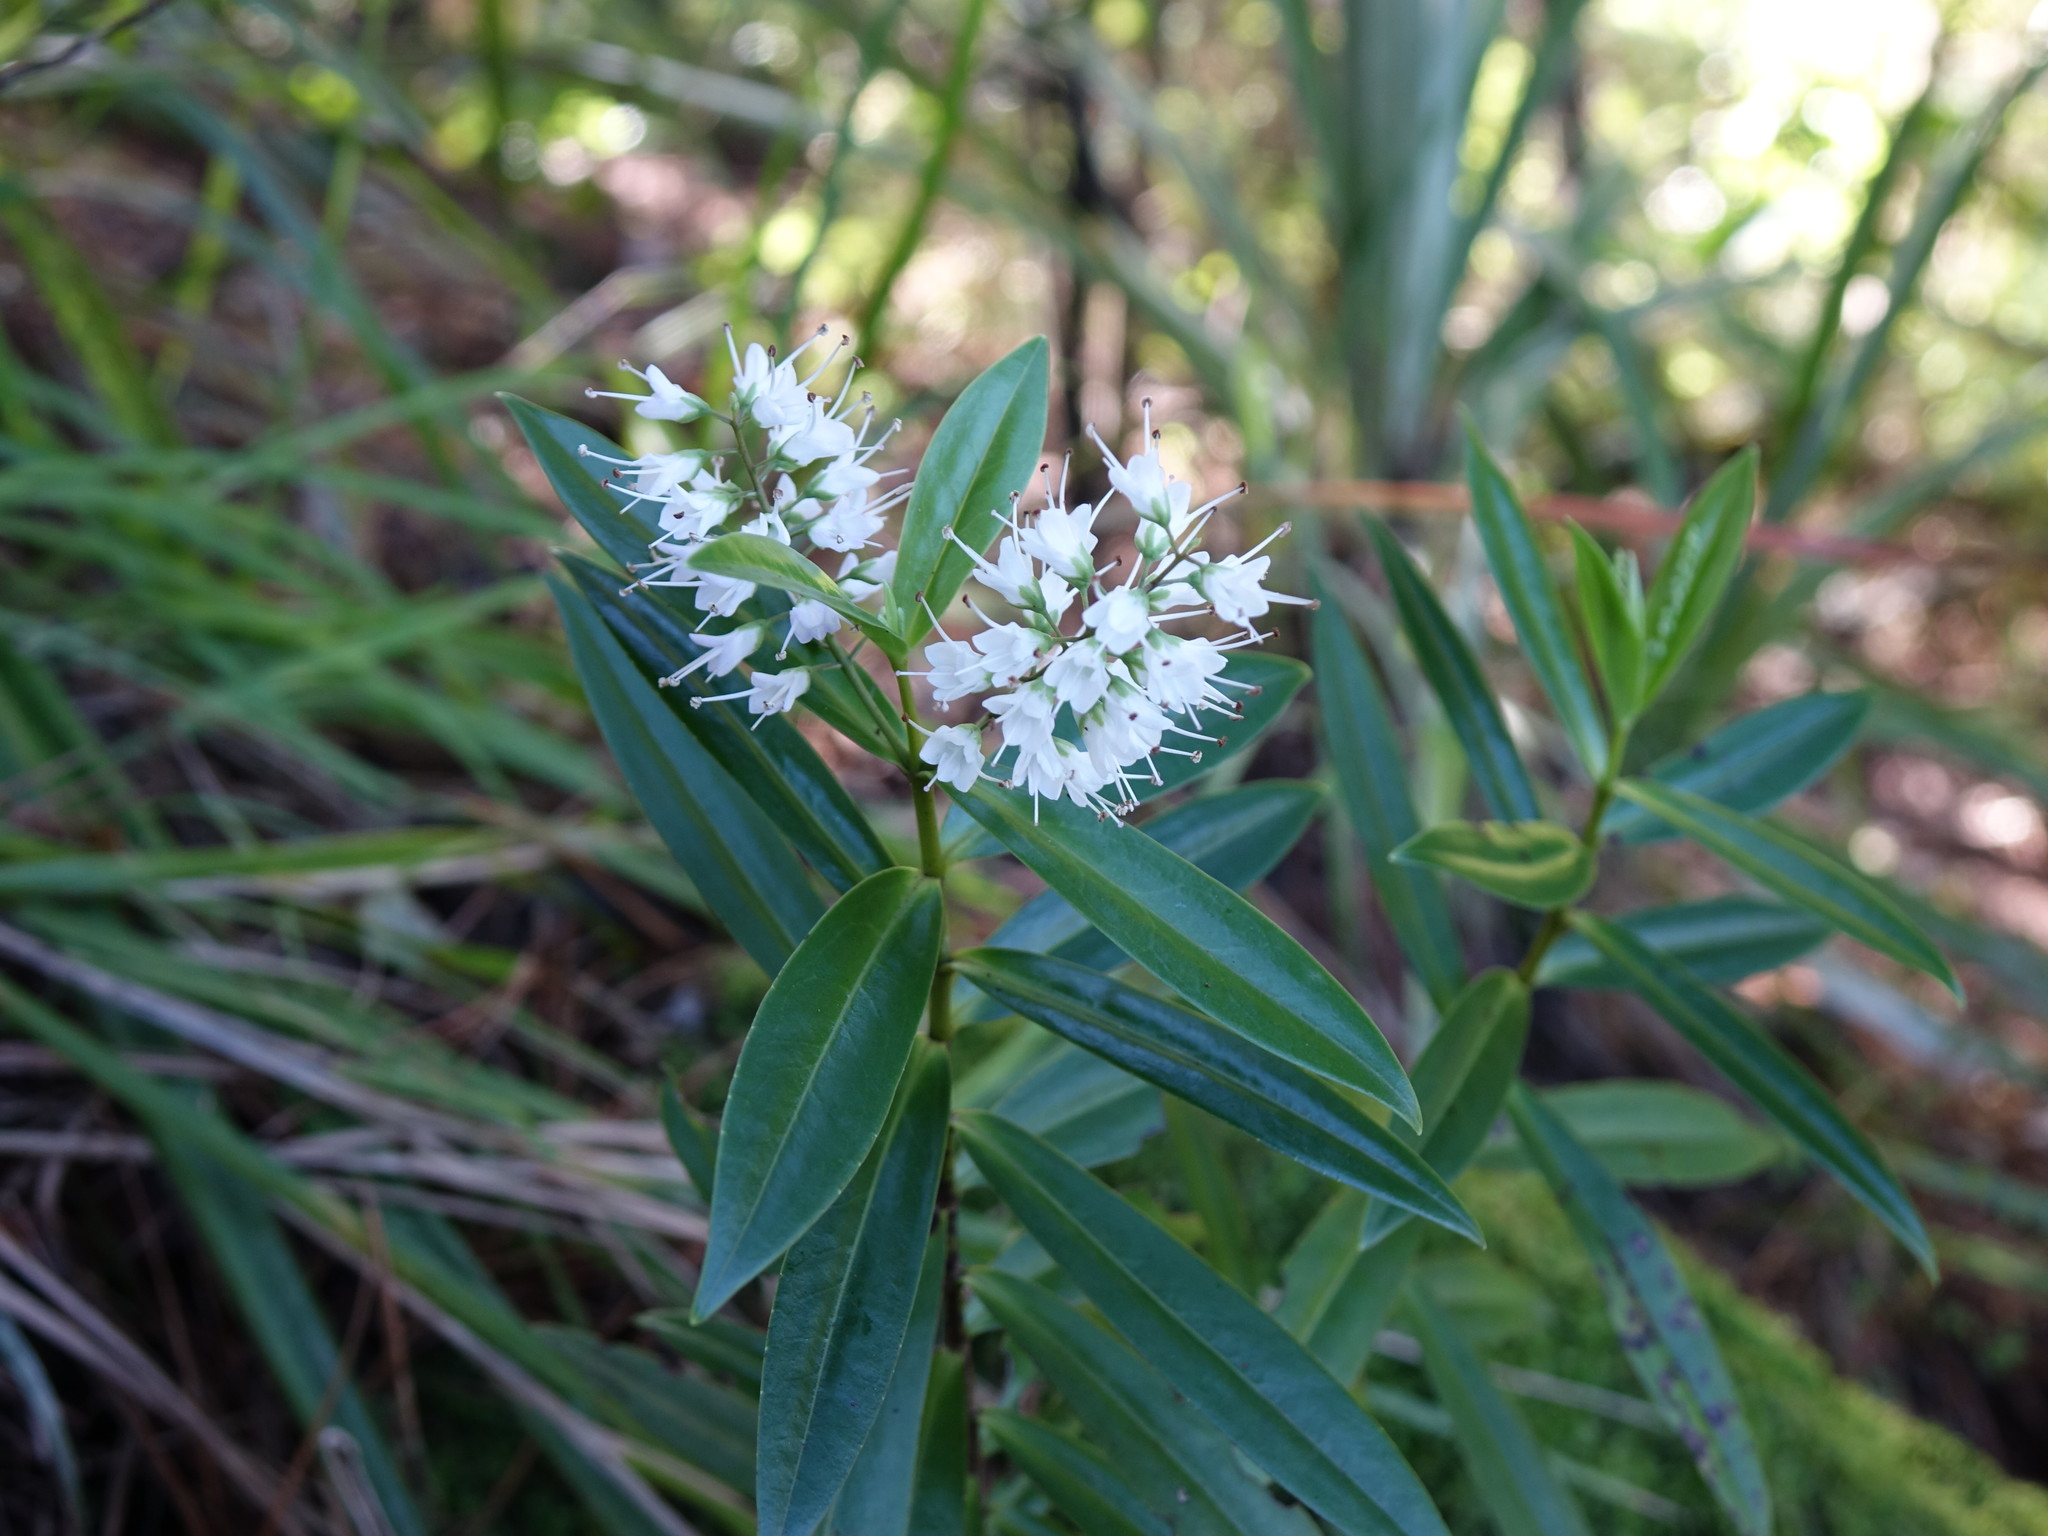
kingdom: Plantae
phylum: Tracheophyta
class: Magnoliopsida
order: Lamiales
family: Plantaginaceae
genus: Veronica
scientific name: Veronica macrocarpa
